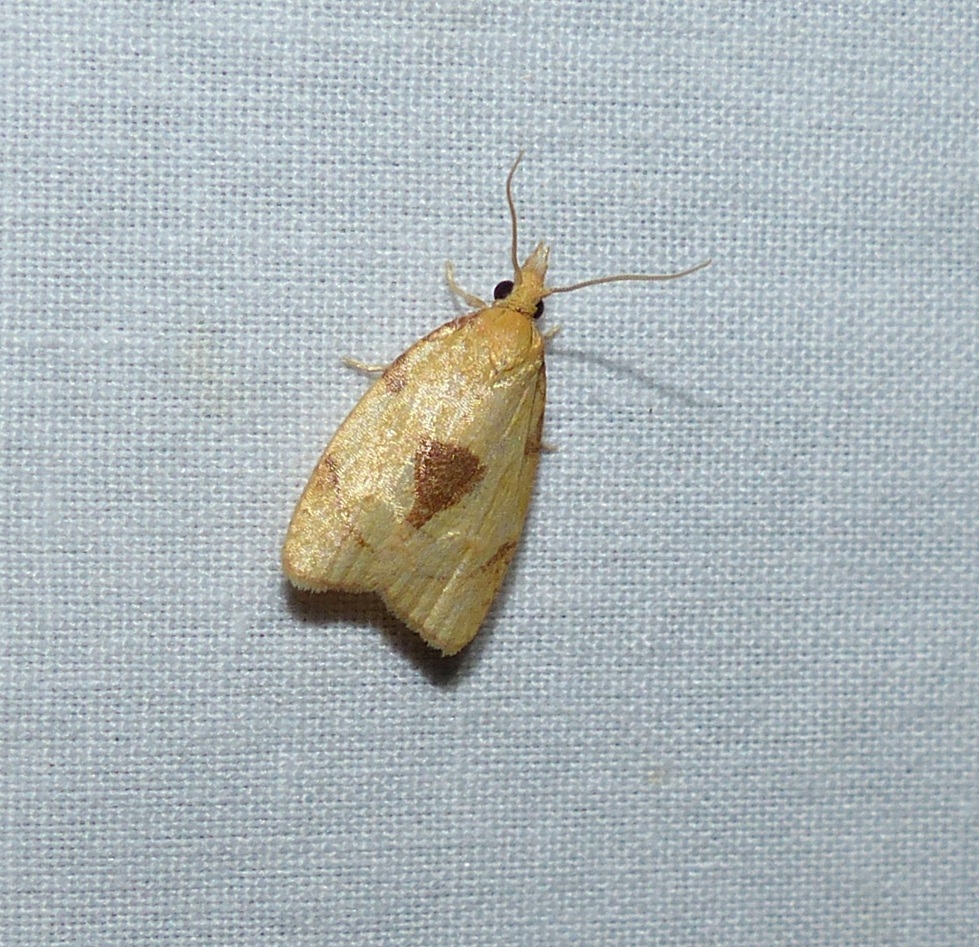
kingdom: Animalia
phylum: Arthropoda
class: Insecta
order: Lepidoptera
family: Tortricidae
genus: Cenopis
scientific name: Cenopis mesospila
